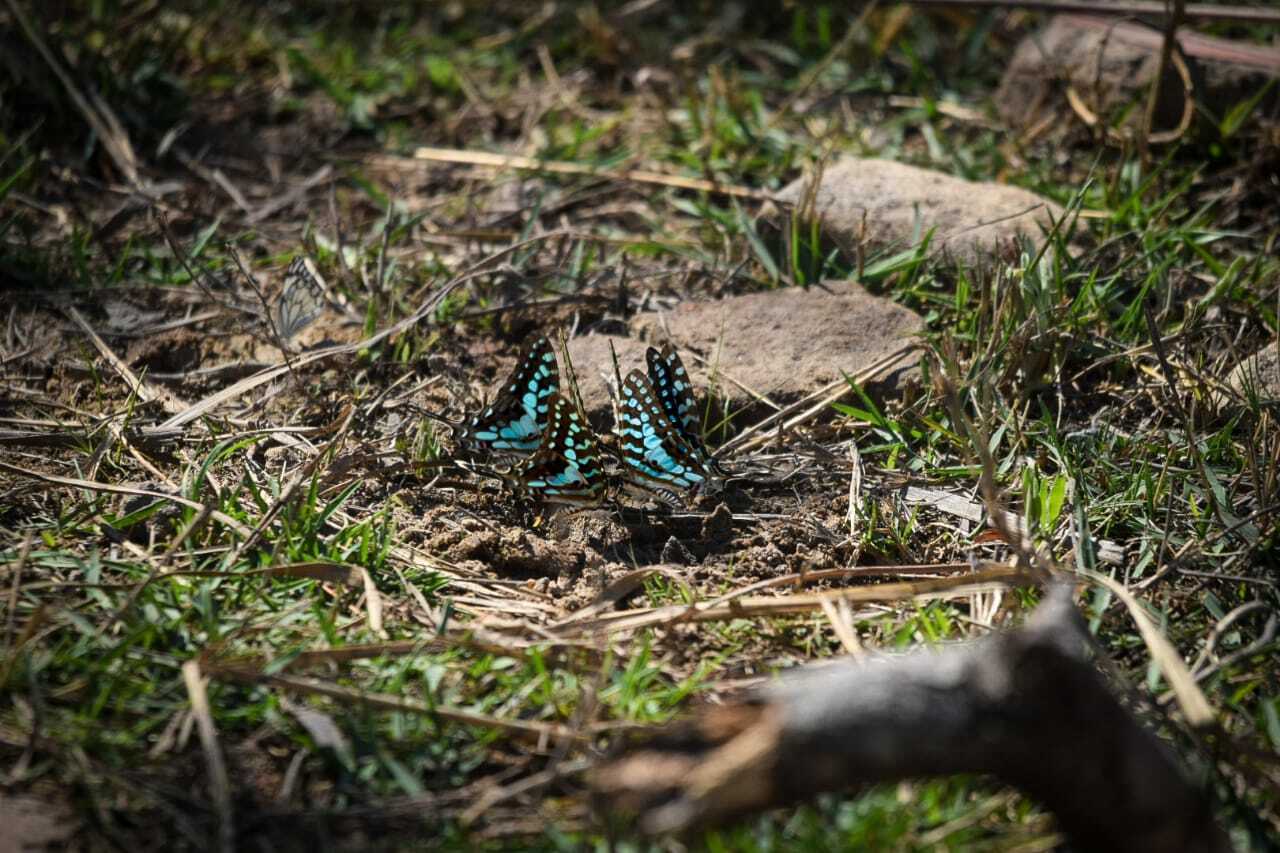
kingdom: Animalia
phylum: Arthropoda
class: Insecta
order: Lepidoptera
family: Papilionidae
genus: Graphium
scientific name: Graphium antheus
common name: Large striped swordtail
